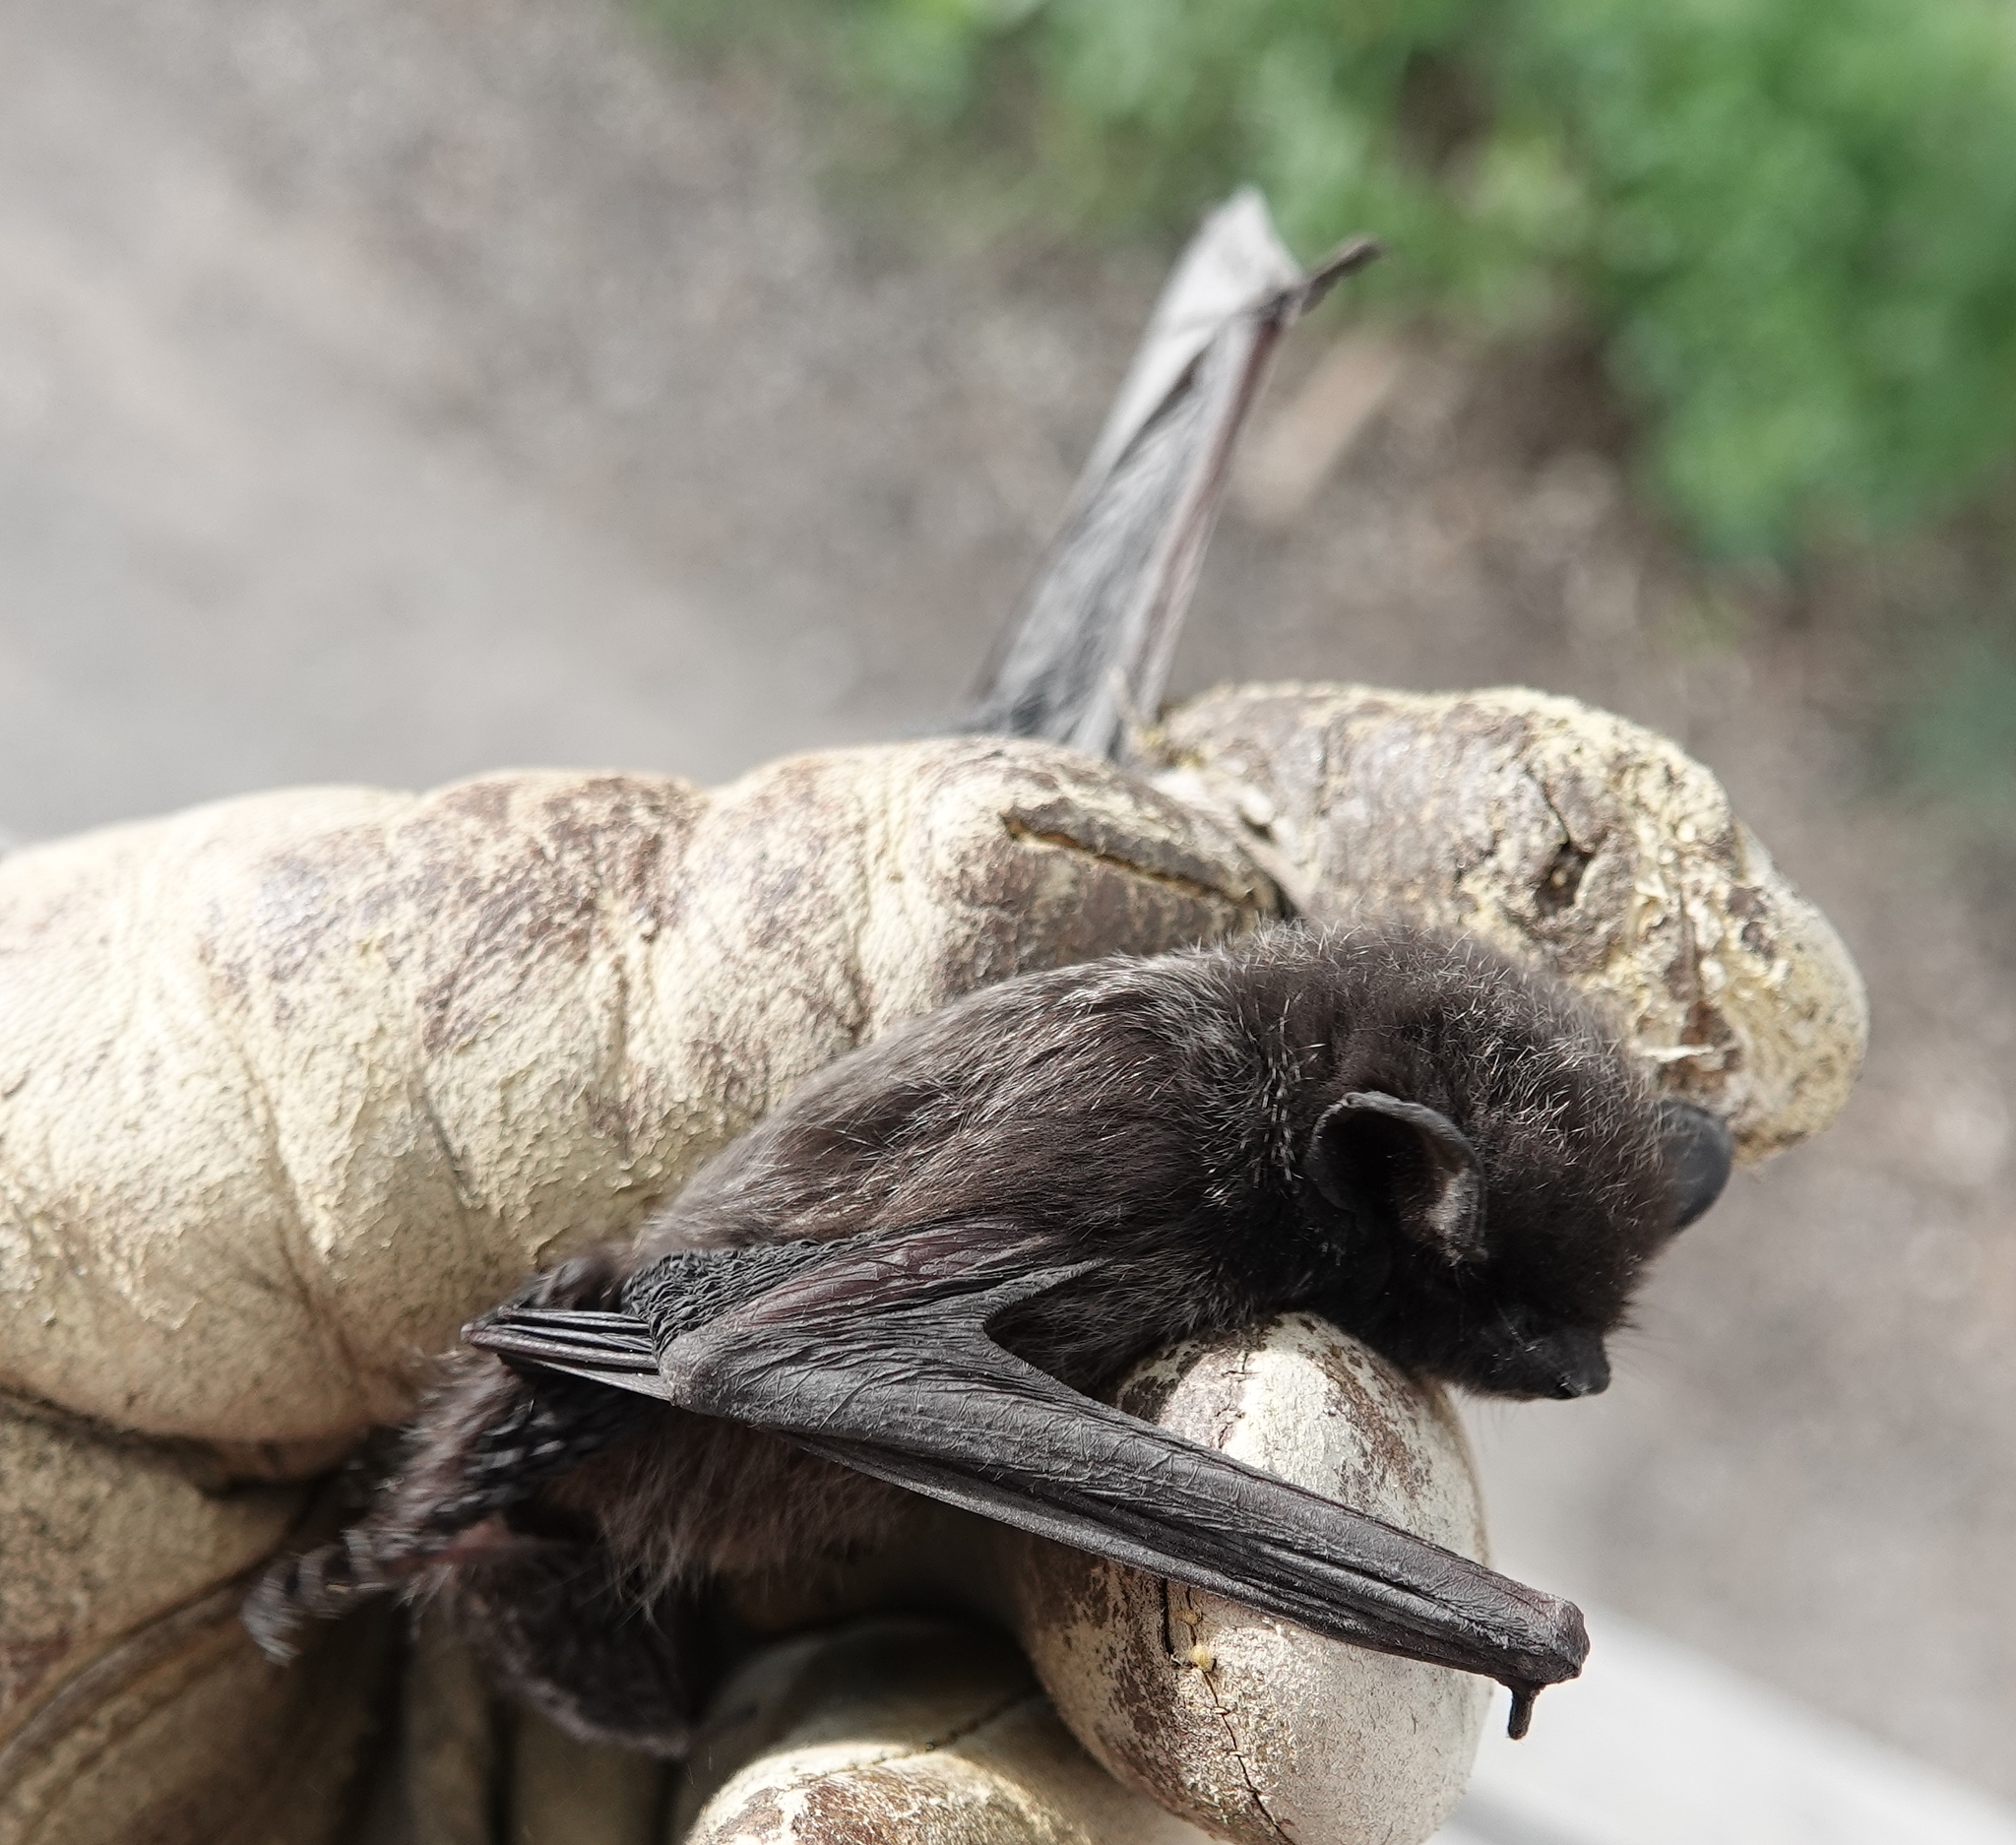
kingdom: Animalia
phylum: Chordata
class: Mammalia
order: Chiroptera
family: Vespertilionidae
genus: Lasionycteris
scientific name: Lasionycteris noctivagans
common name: Silver-haired bat
